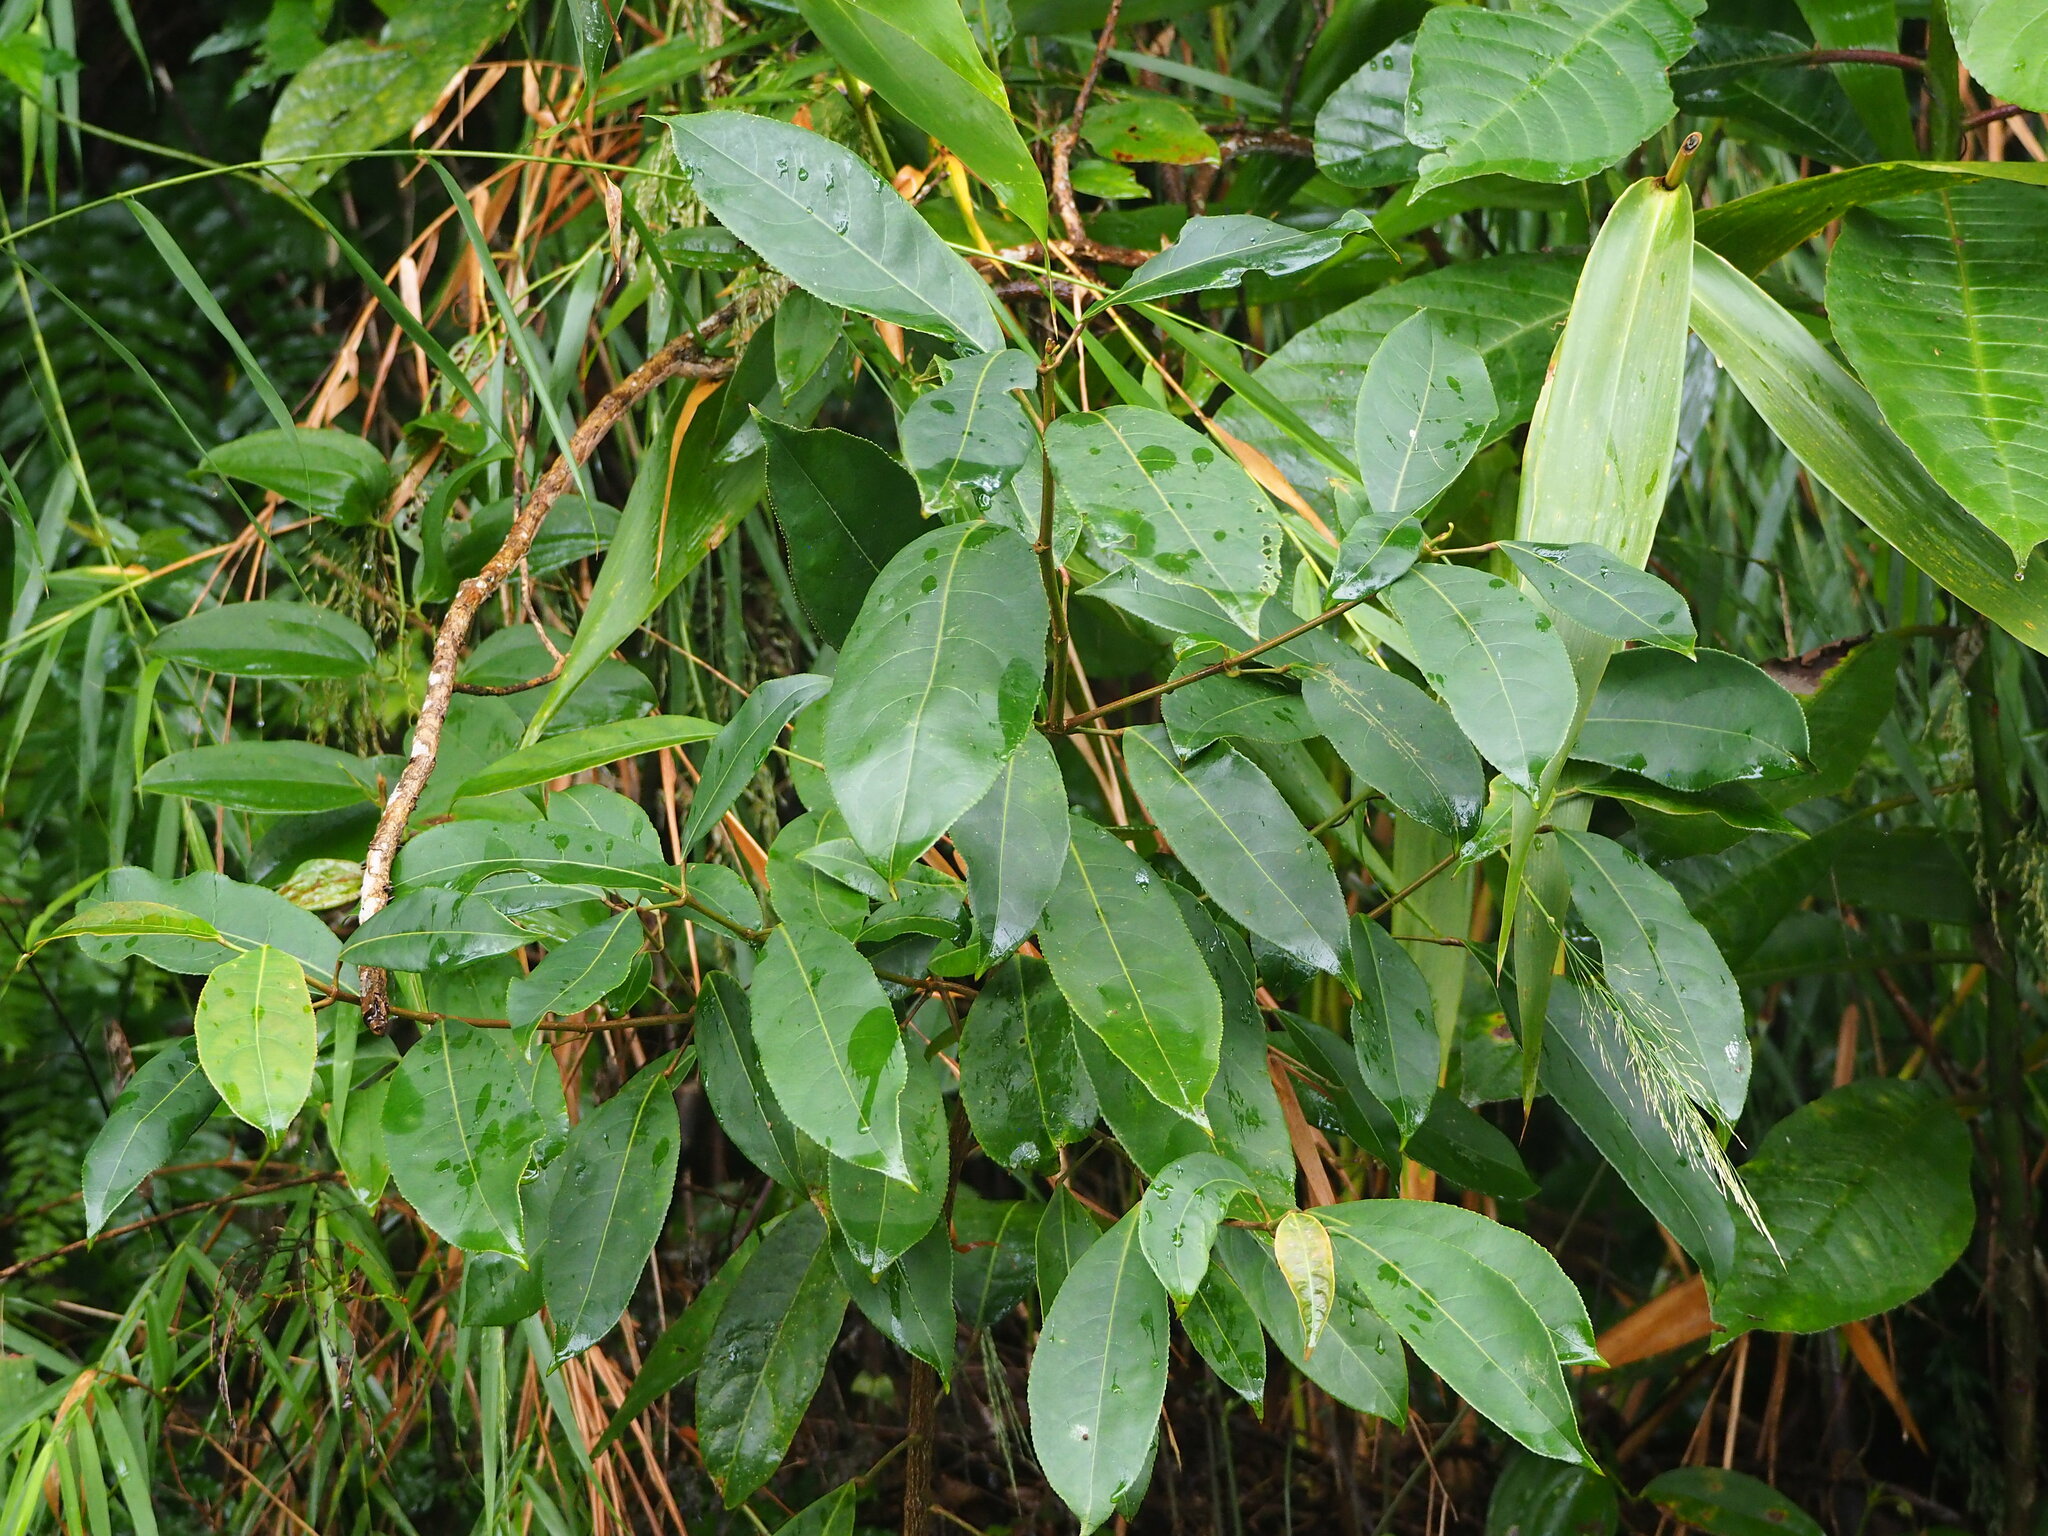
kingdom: Plantae
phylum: Tracheophyta
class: Magnoliopsida
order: Crossosomatales
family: Staphyleaceae
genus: Turpinia
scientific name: Turpinia formosana
